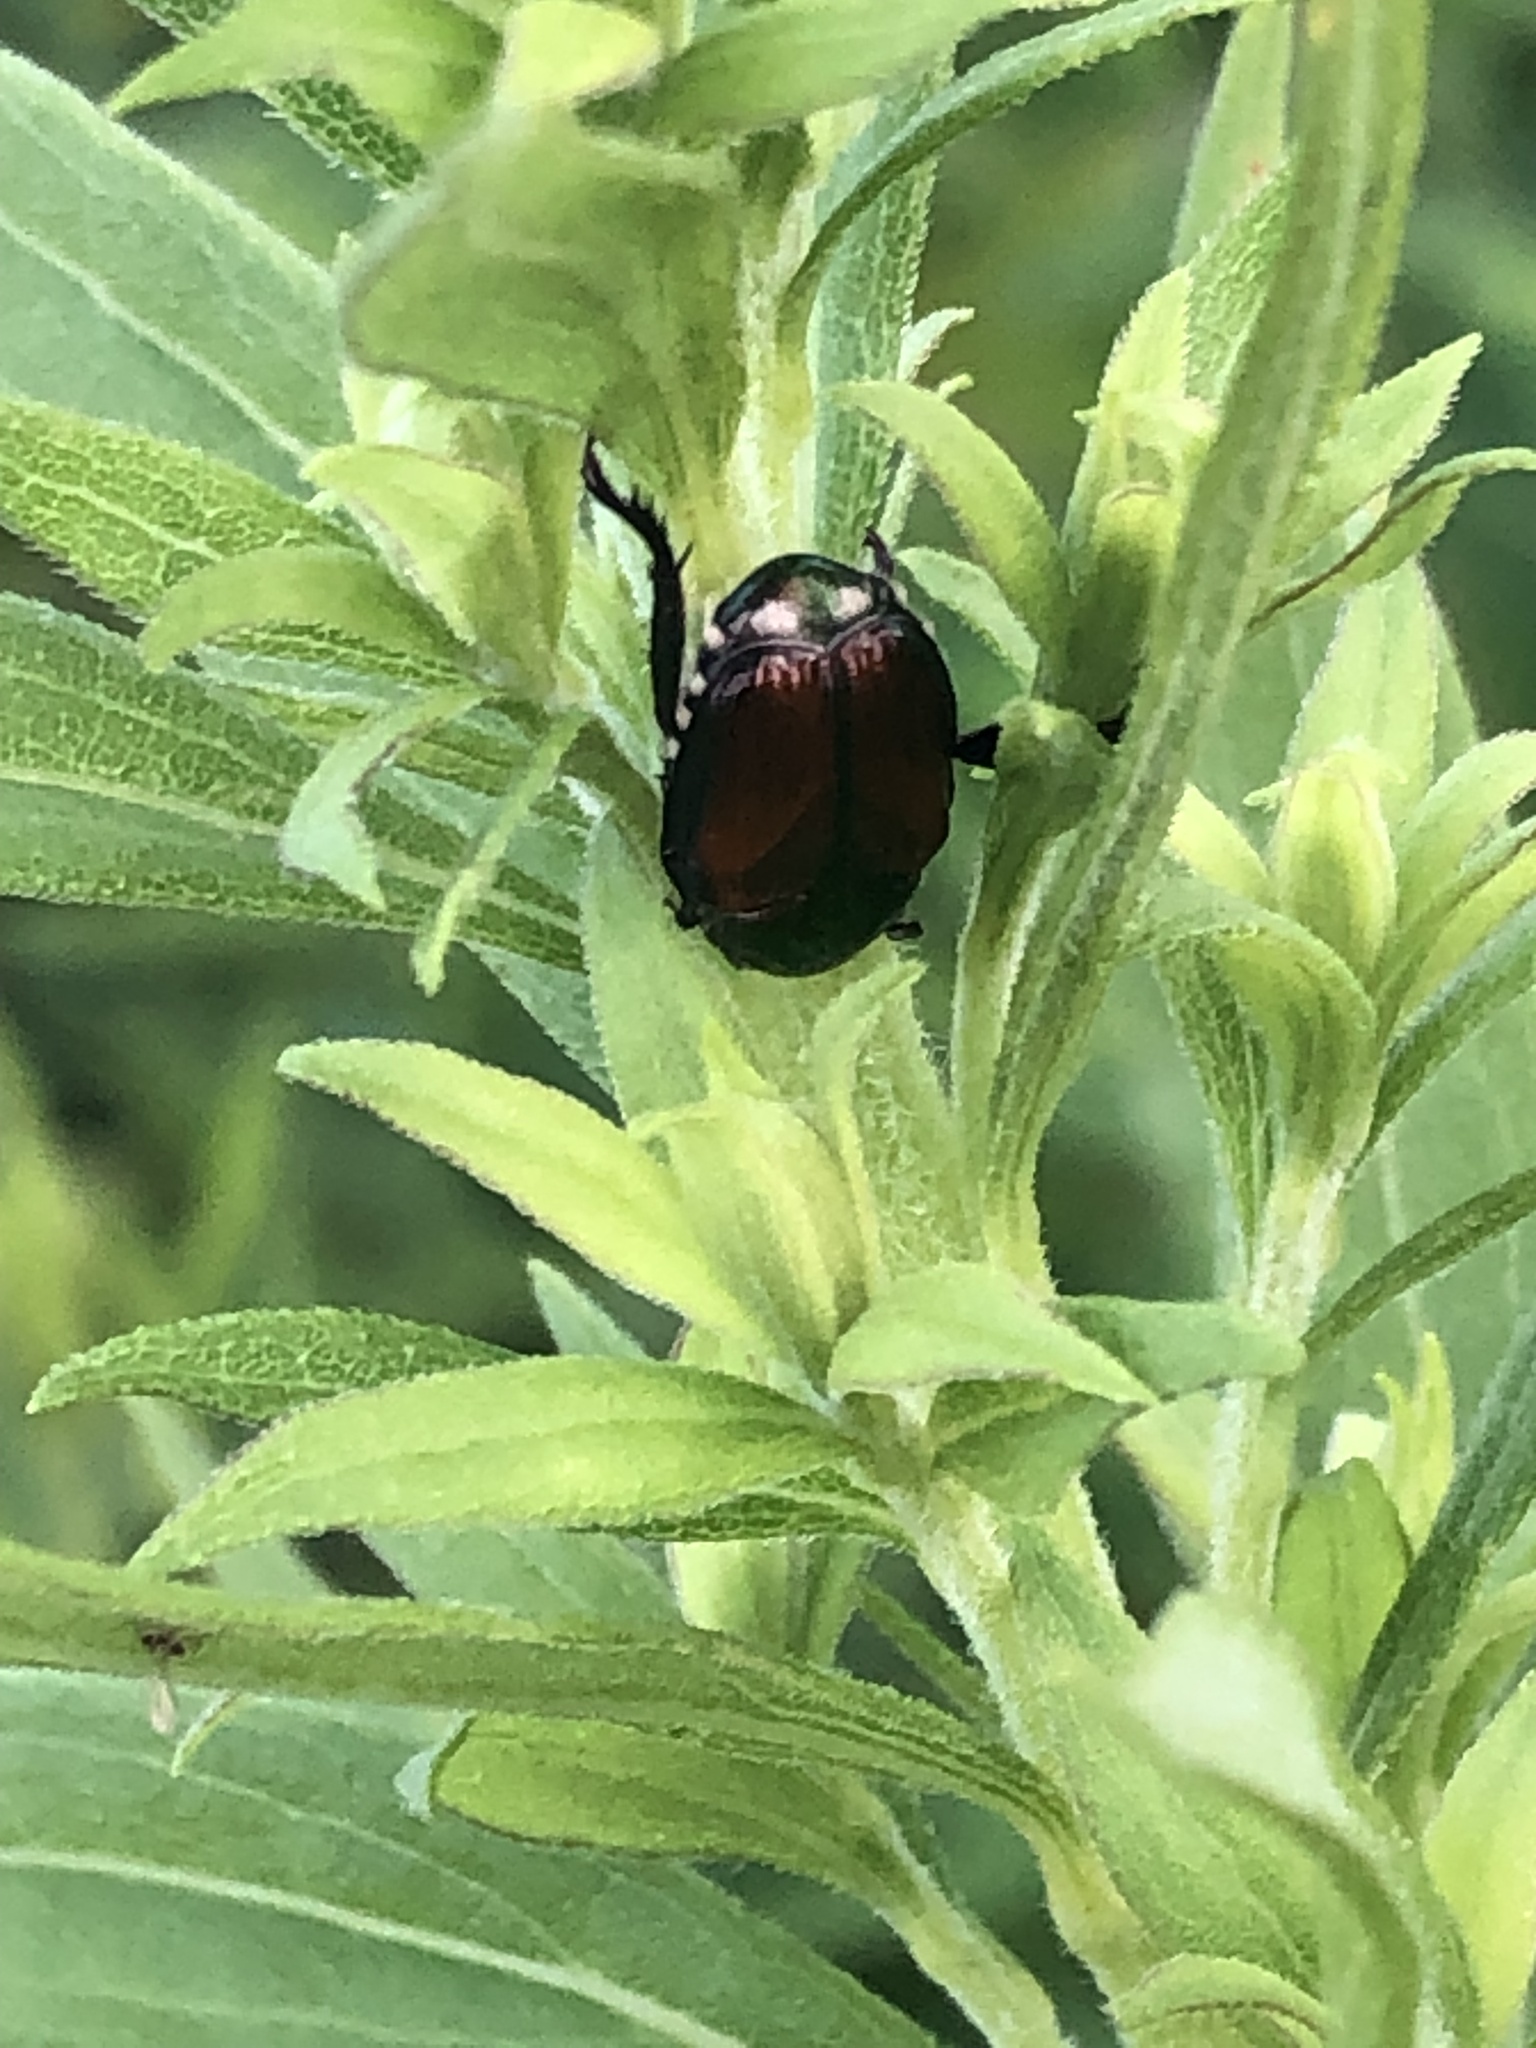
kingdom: Animalia
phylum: Arthropoda
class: Insecta
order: Coleoptera
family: Scarabaeidae
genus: Popillia
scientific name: Popillia japonica
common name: Japanese beetle
